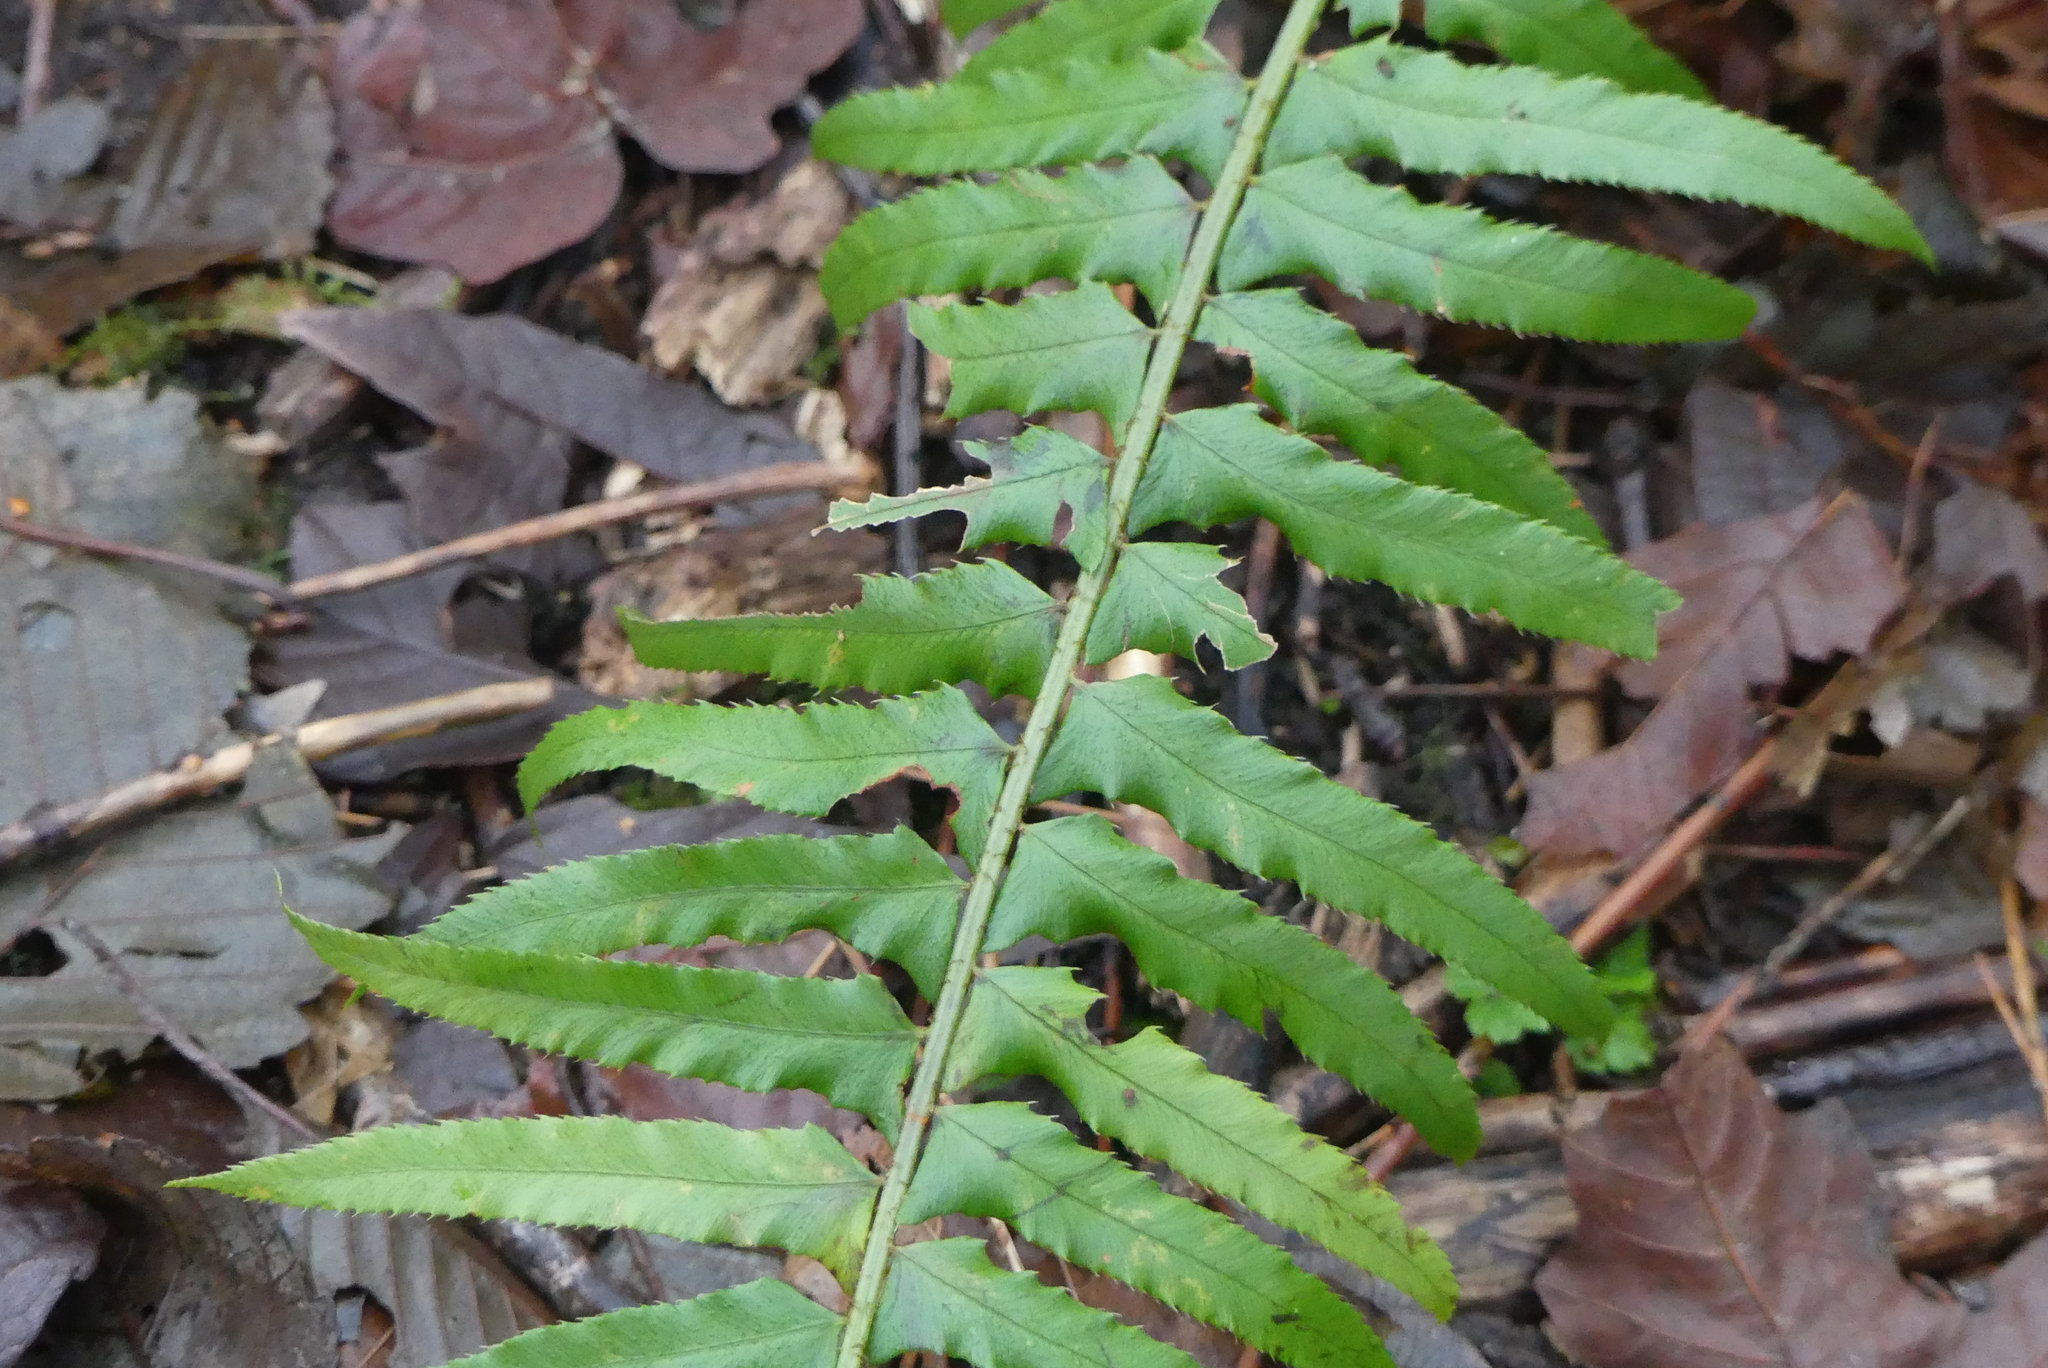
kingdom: Plantae
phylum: Tracheophyta
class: Polypodiopsida
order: Polypodiales
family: Dryopteridaceae
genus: Polystichum
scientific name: Polystichum munitum
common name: Western sword-fern
